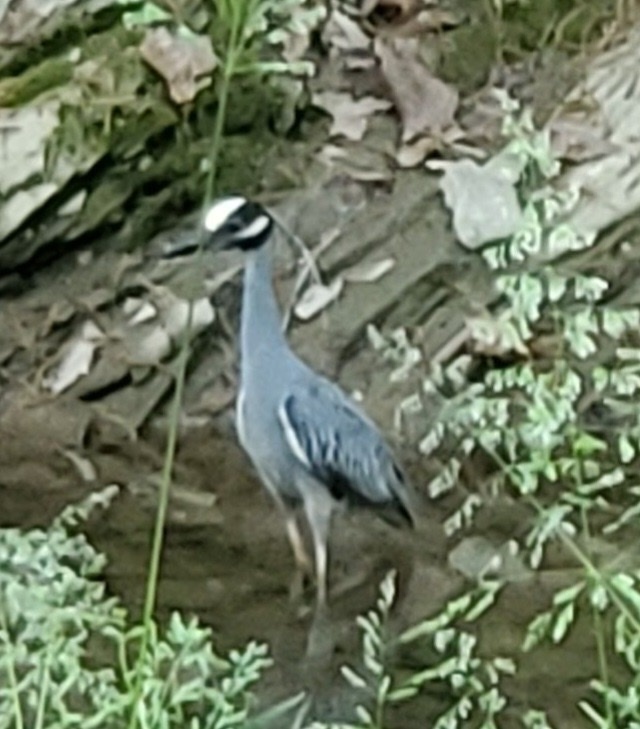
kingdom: Animalia
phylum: Chordata
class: Aves
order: Pelecaniformes
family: Ardeidae
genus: Nyctanassa
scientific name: Nyctanassa violacea
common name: Yellow-crowned night heron
